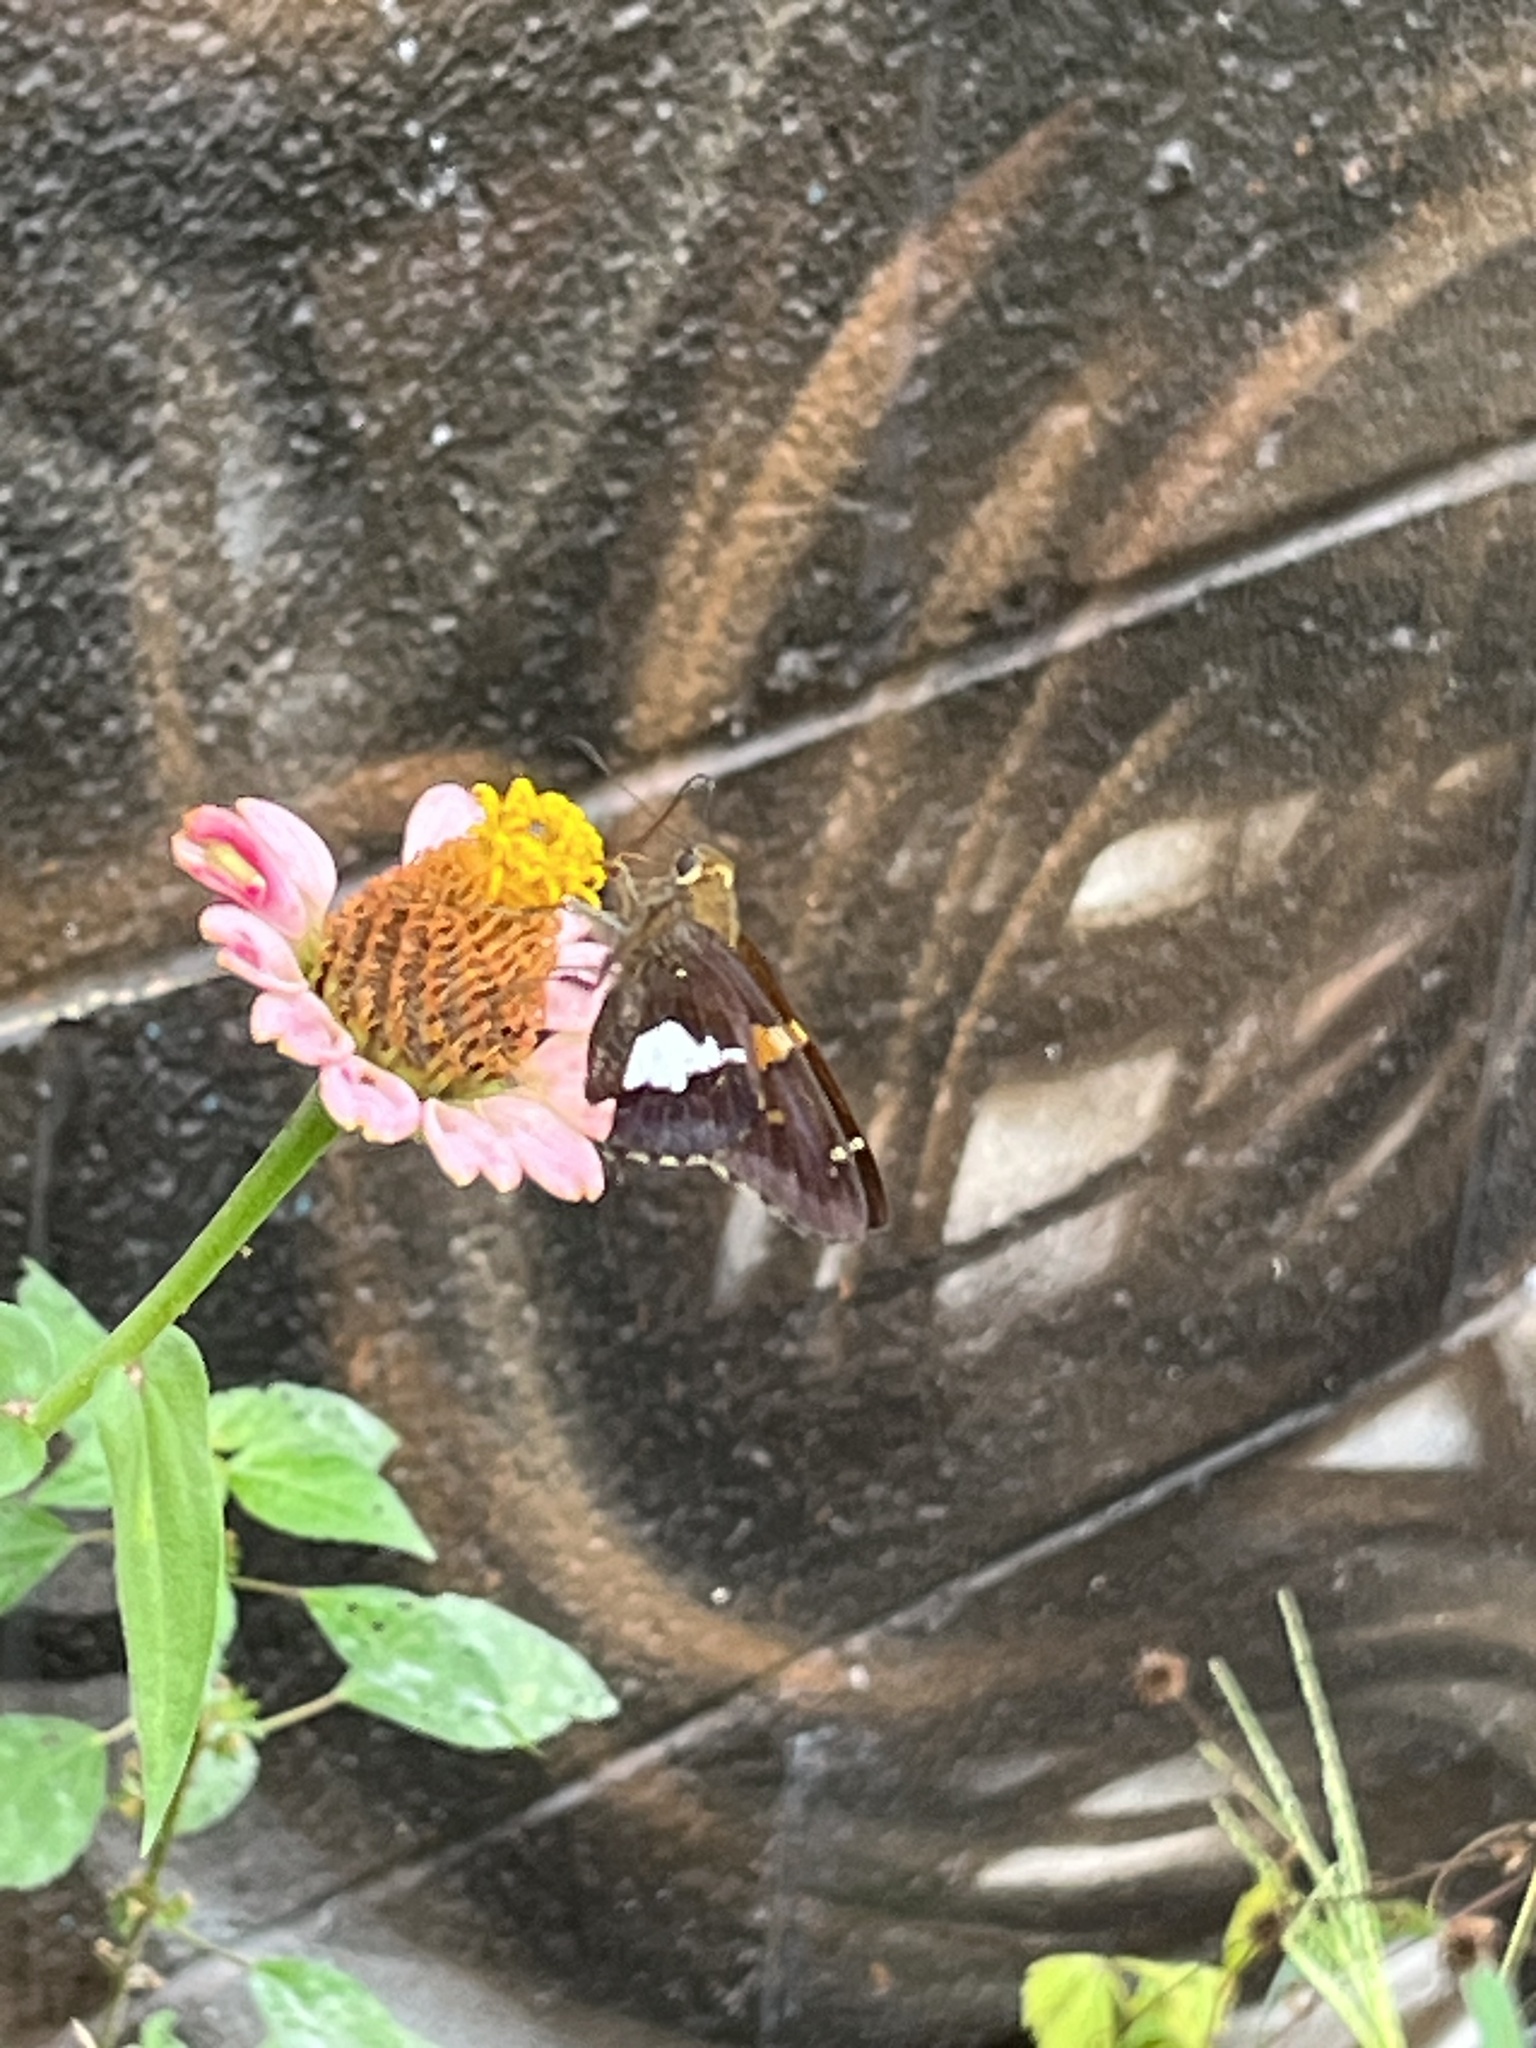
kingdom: Animalia
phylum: Arthropoda
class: Insecta
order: Lepidoptera
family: Hesperiidae
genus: Epargyreus
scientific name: Epargyreus clarus
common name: Silver-spotted skipper
